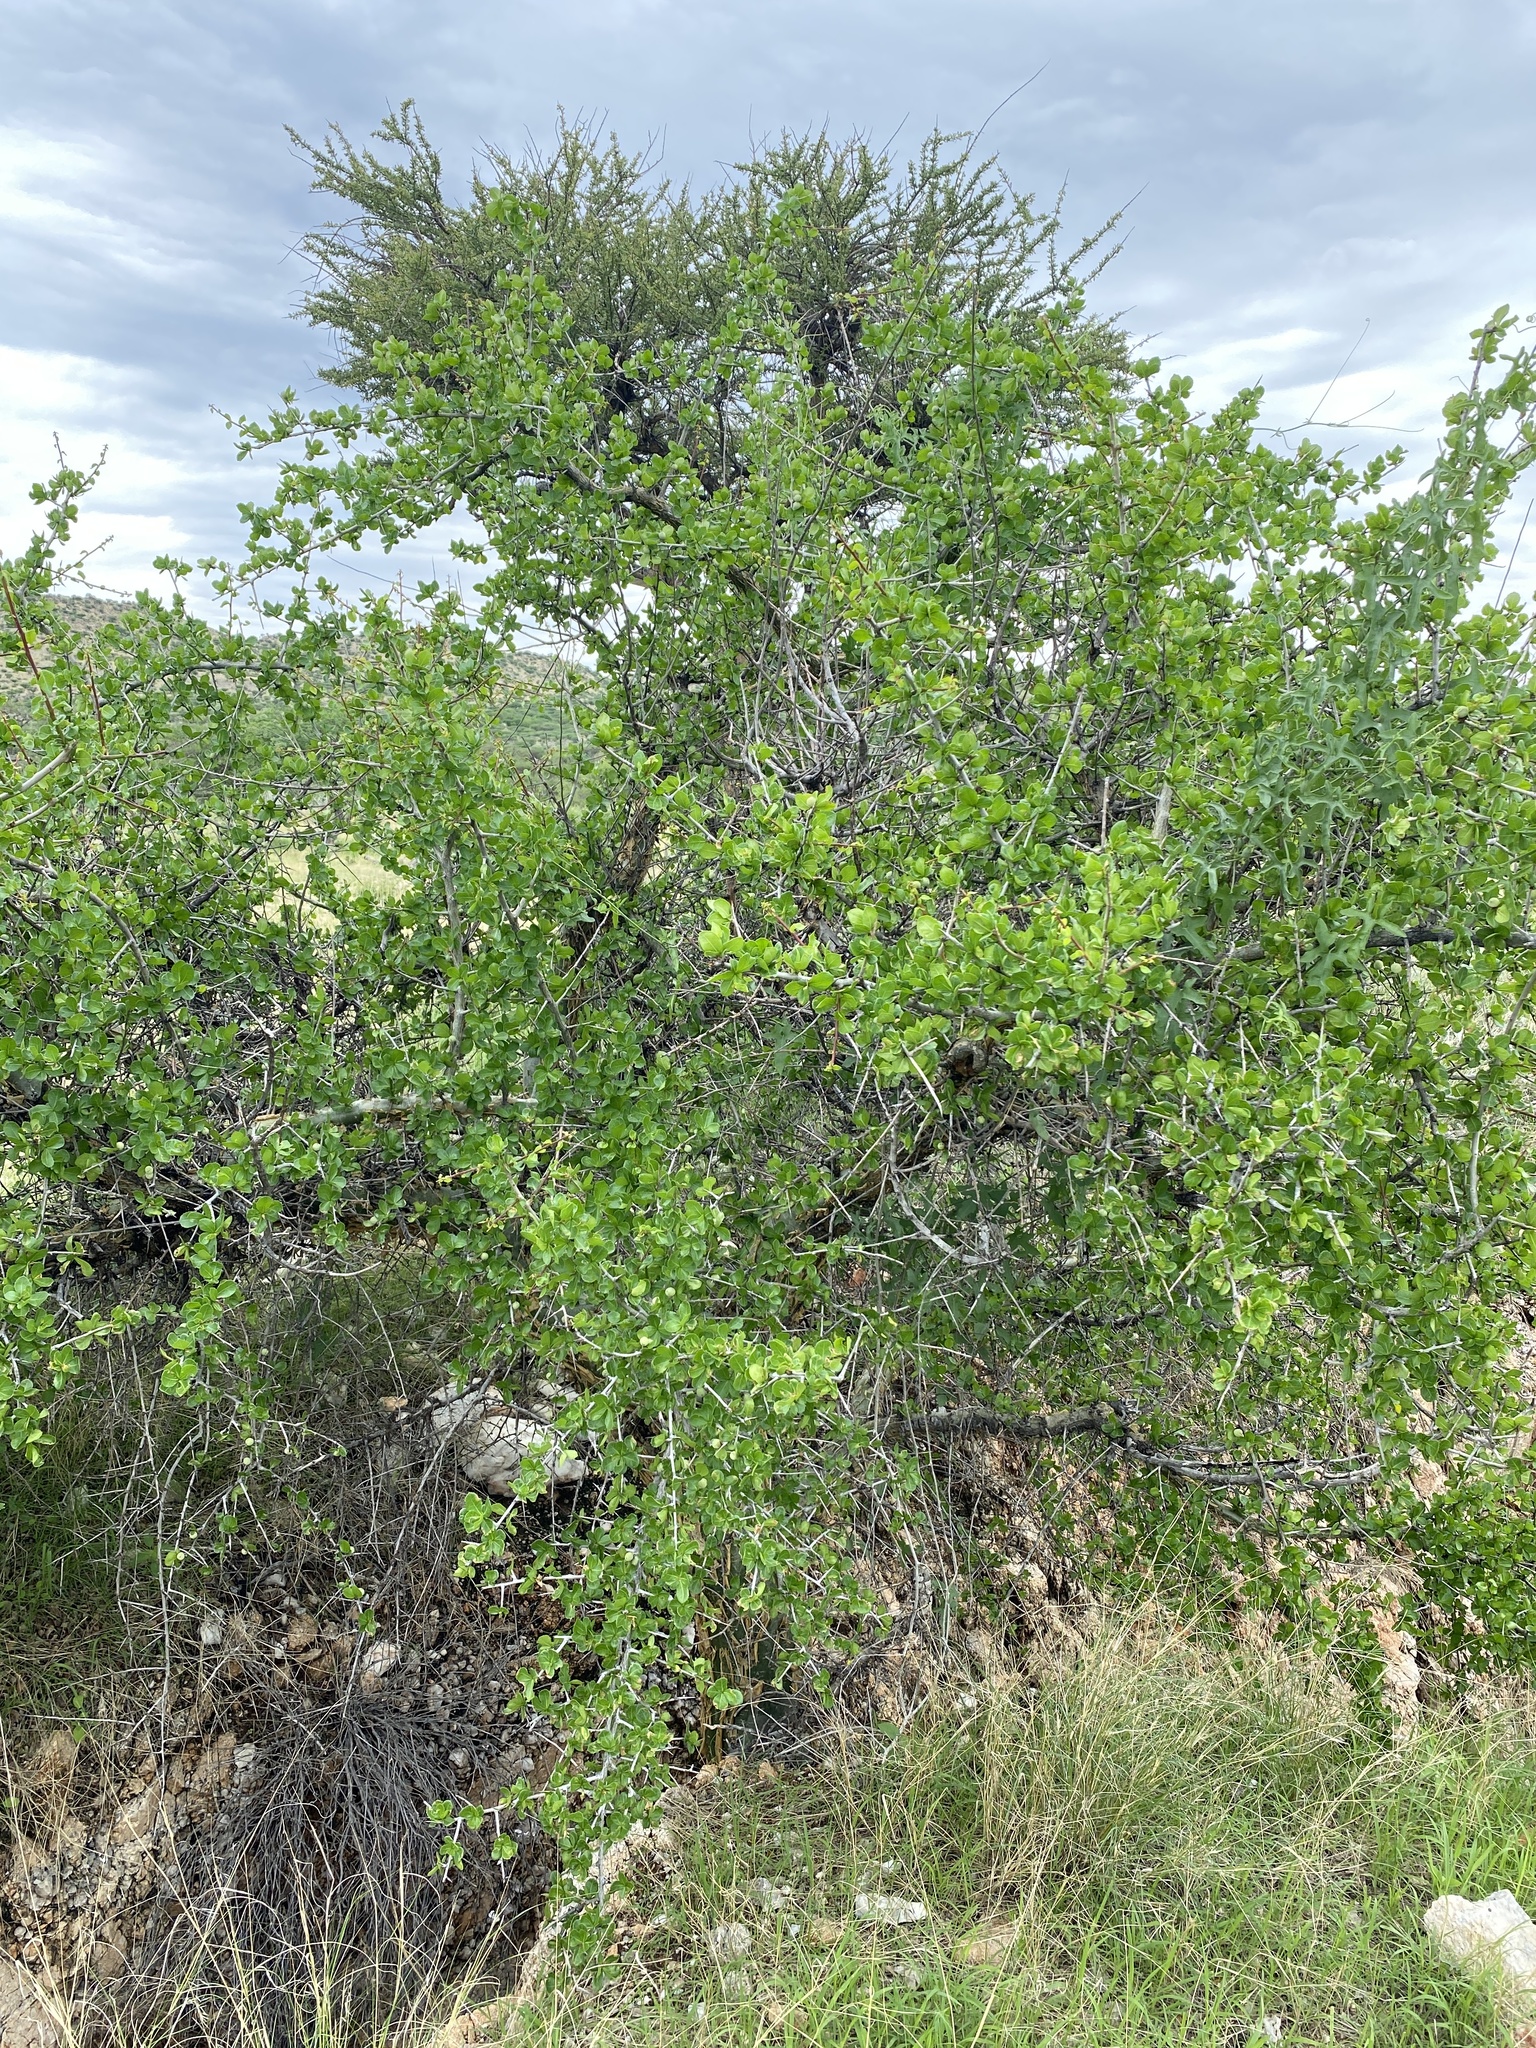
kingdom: Plantae
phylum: Tracheophyta
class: Magnoliopsida
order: Sapindales
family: Burseraceae
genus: Commiphora
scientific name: Commiphora glandulosa
